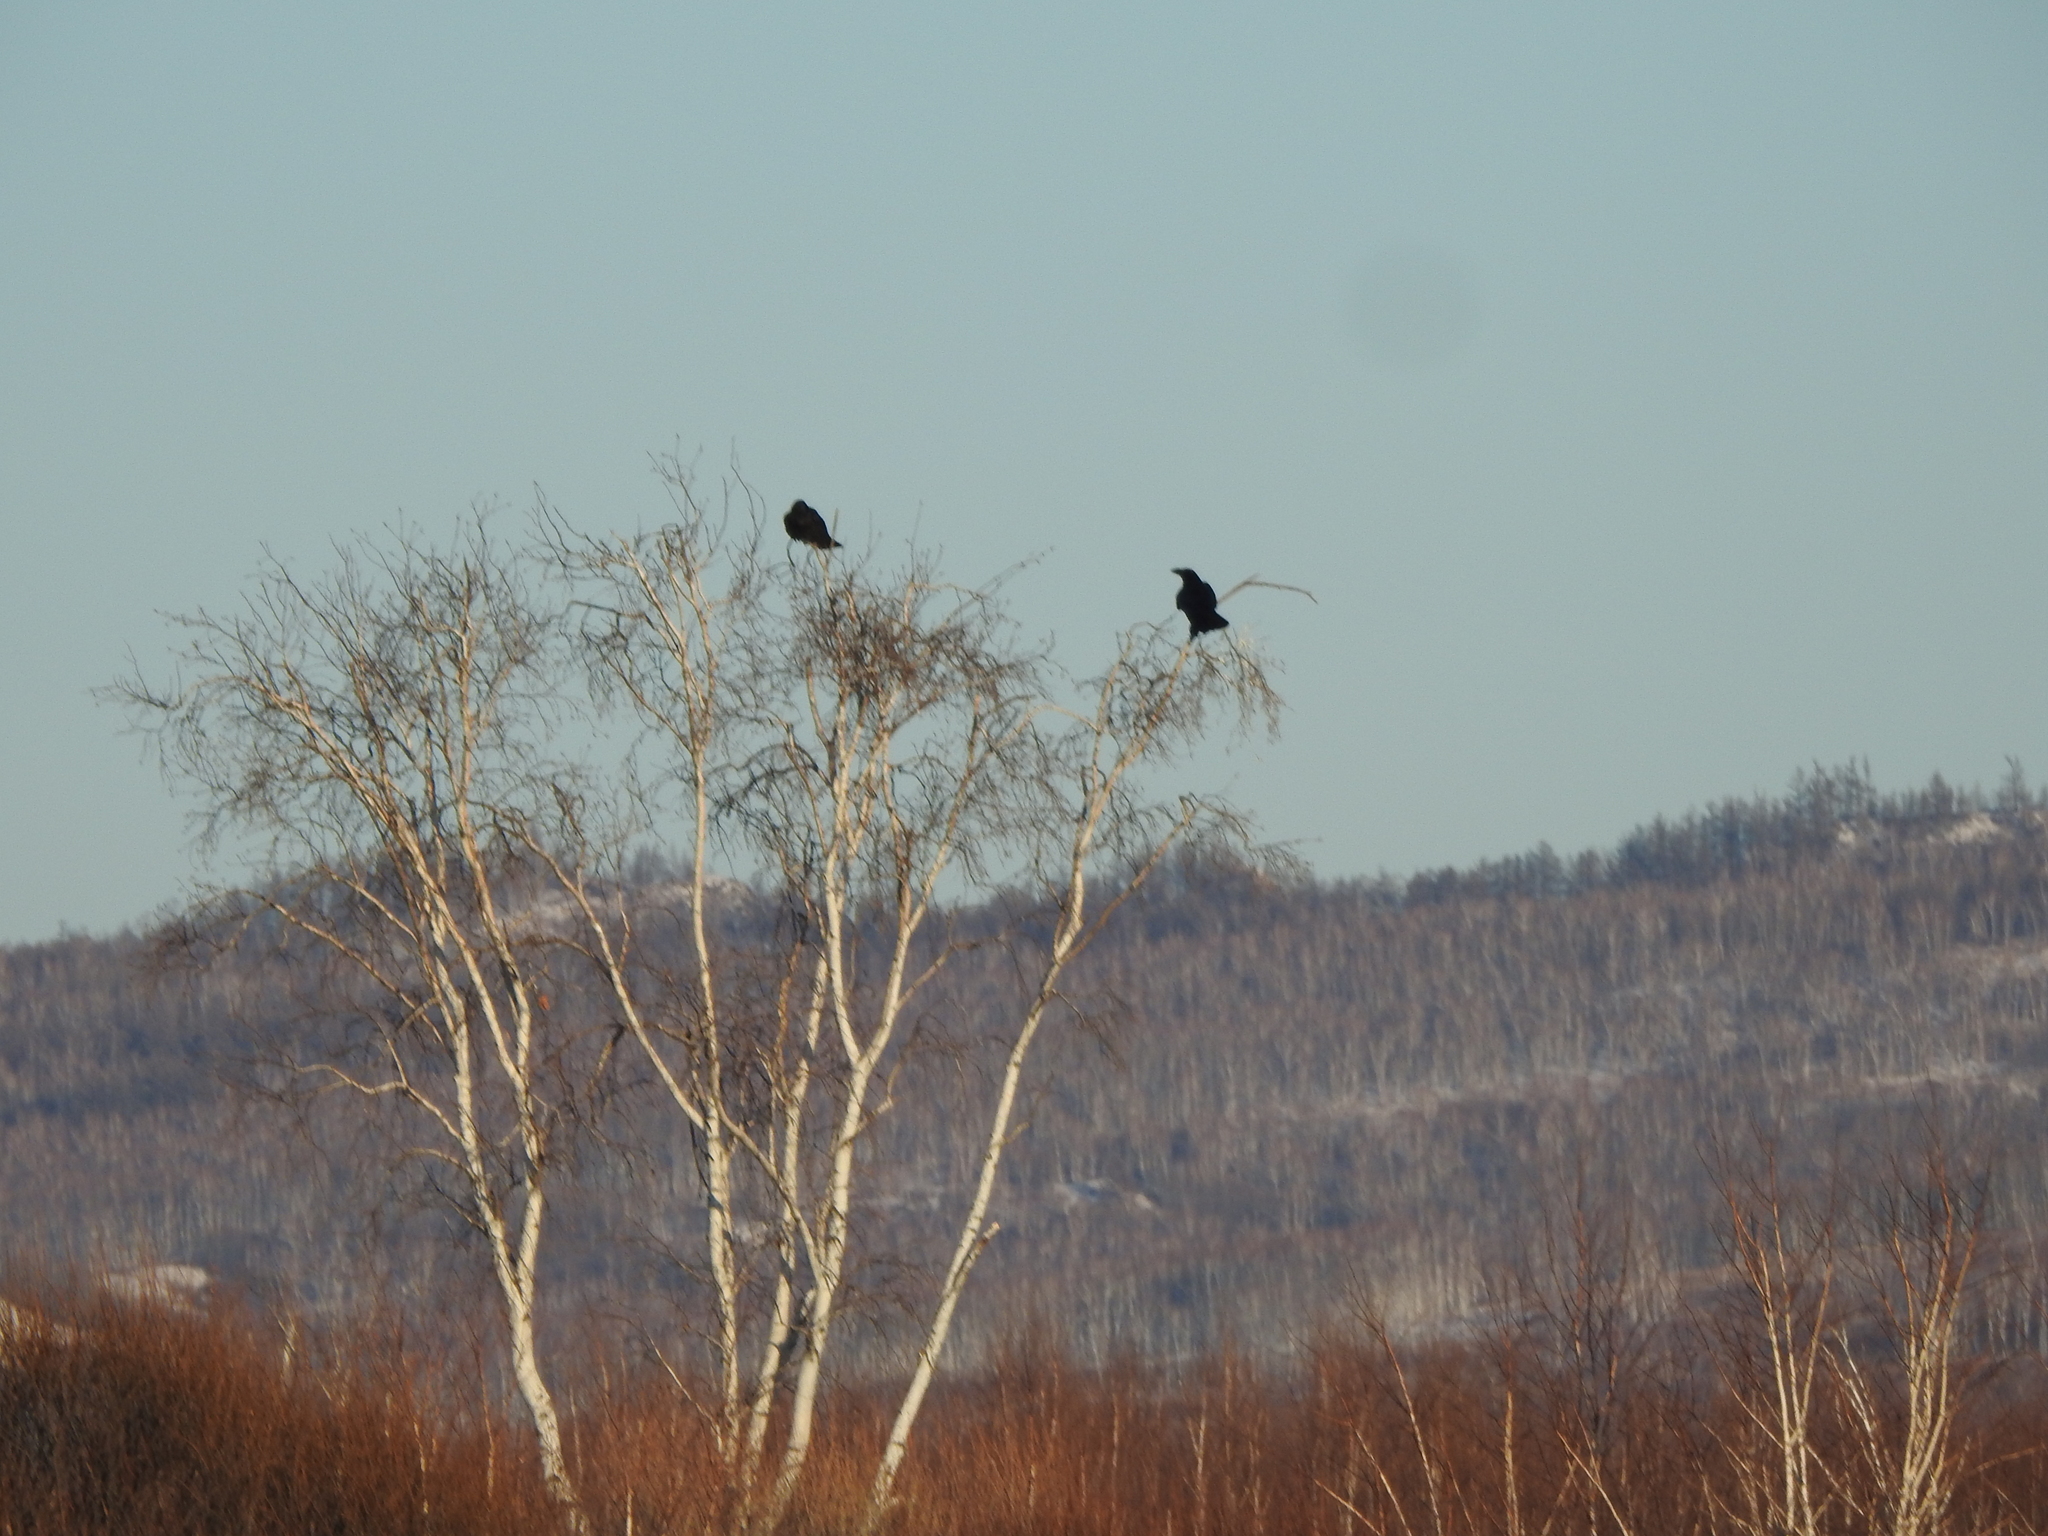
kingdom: Animalia
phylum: Chordata
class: Aves
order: Passeriformes
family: Corvidae
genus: Corvus
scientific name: Corvus corax
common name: Common raven
